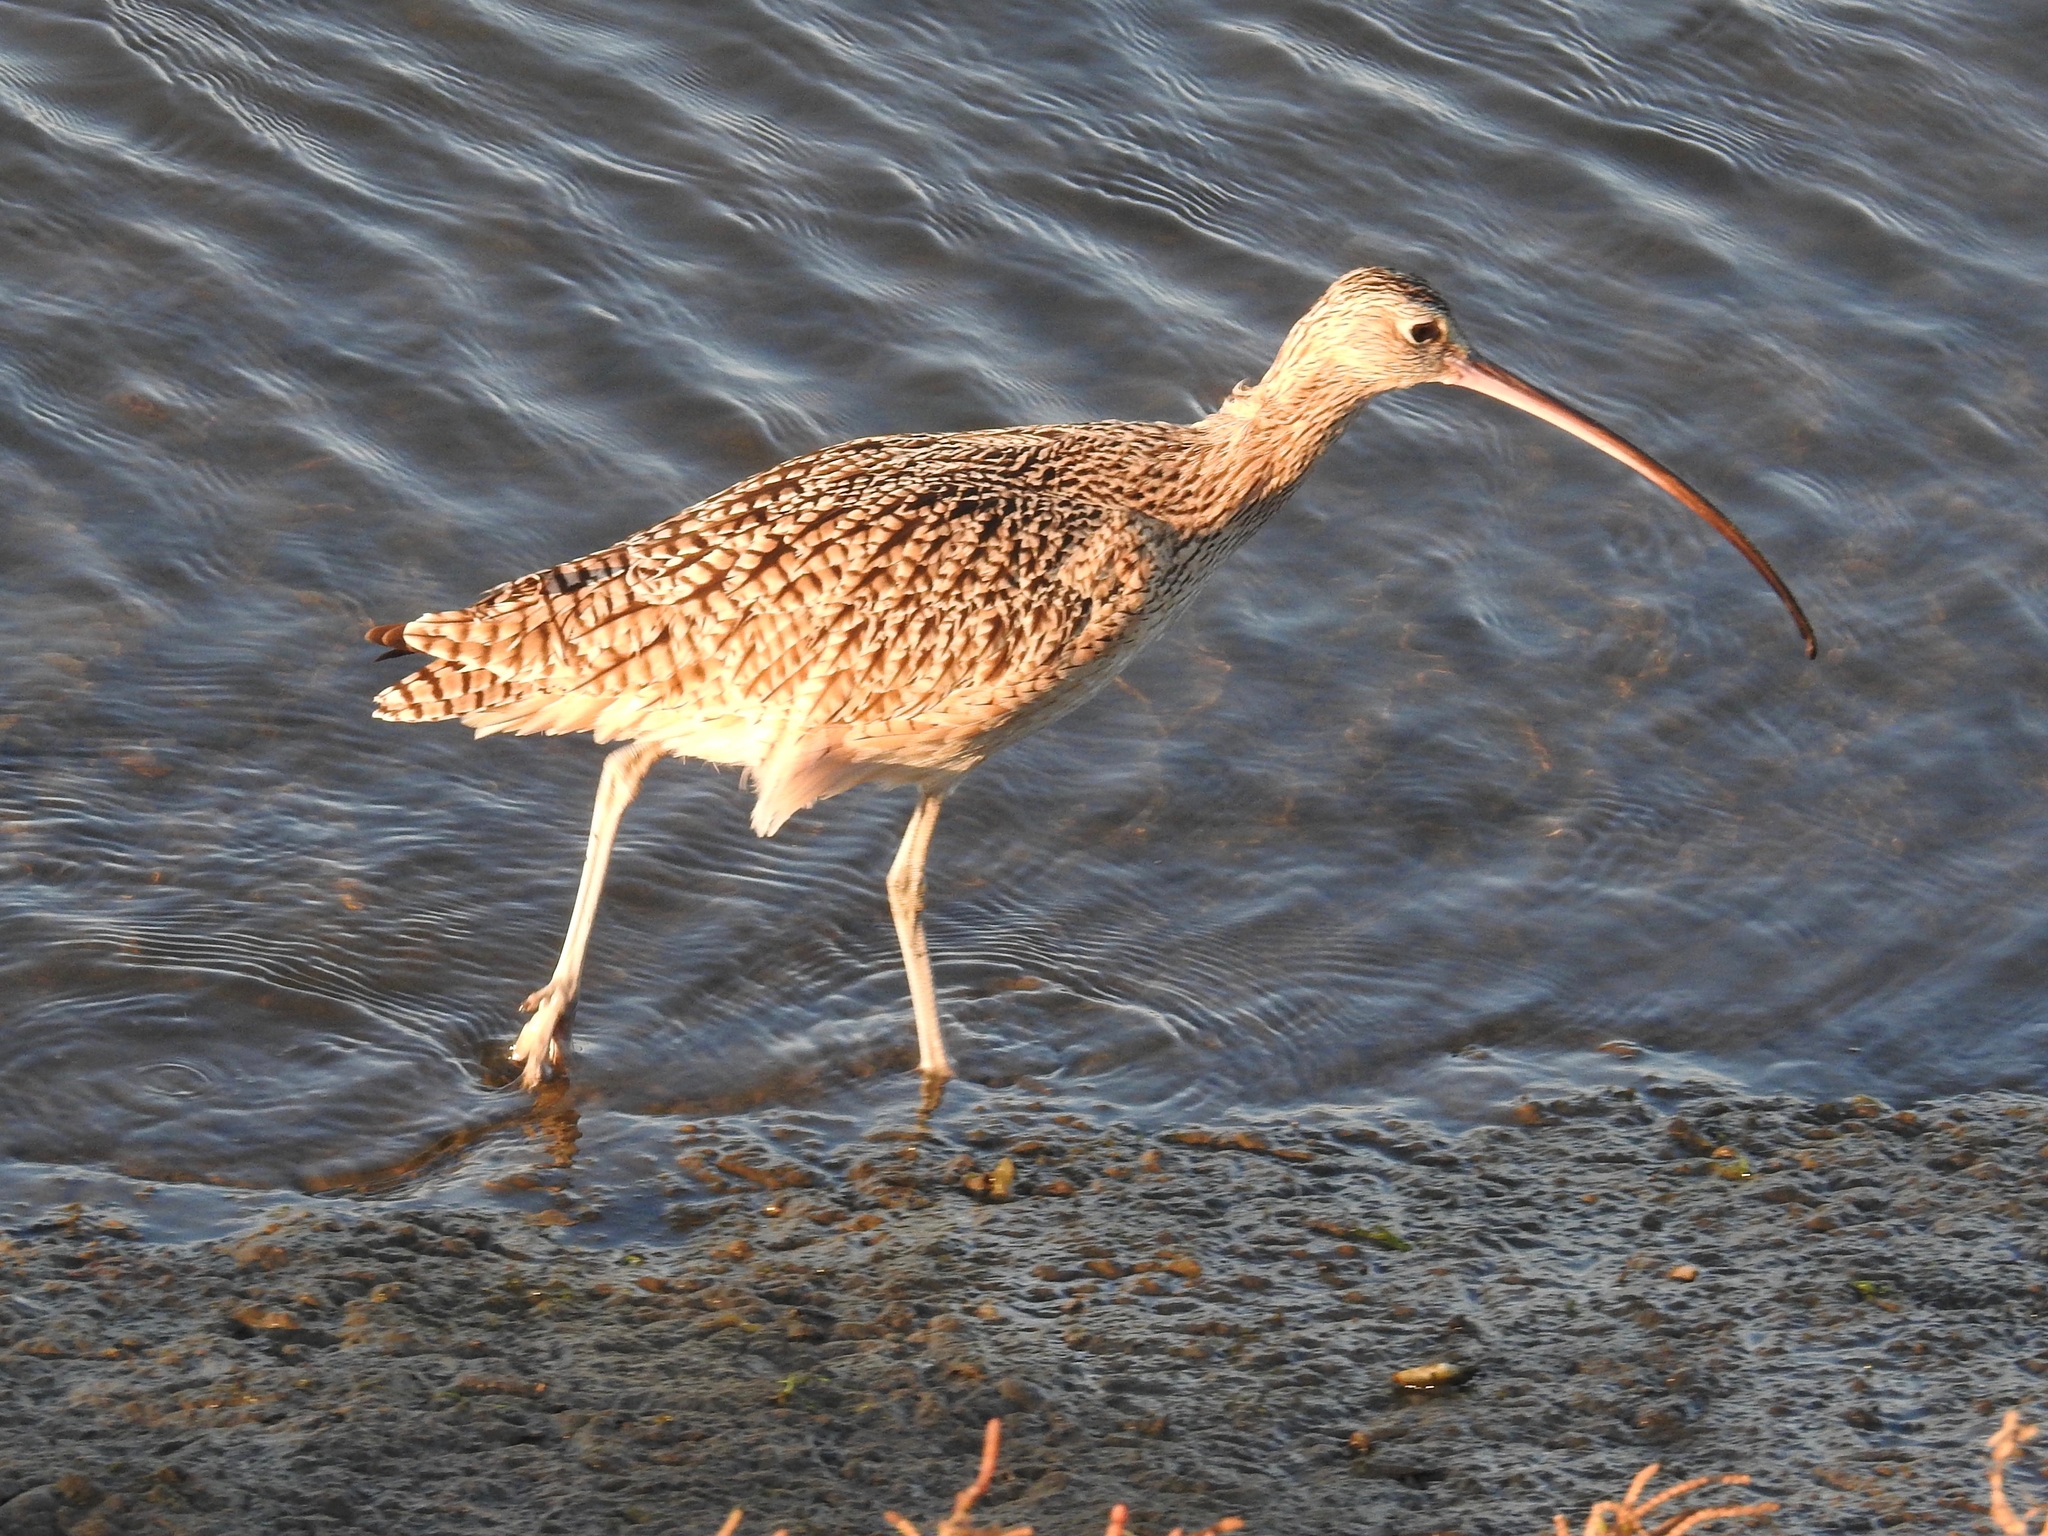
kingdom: Animalia
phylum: Chordata
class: Aves
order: Charadriiformes
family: Scolopacidae
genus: Numenius
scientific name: Numenius americanus
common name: Long-billed curlew
